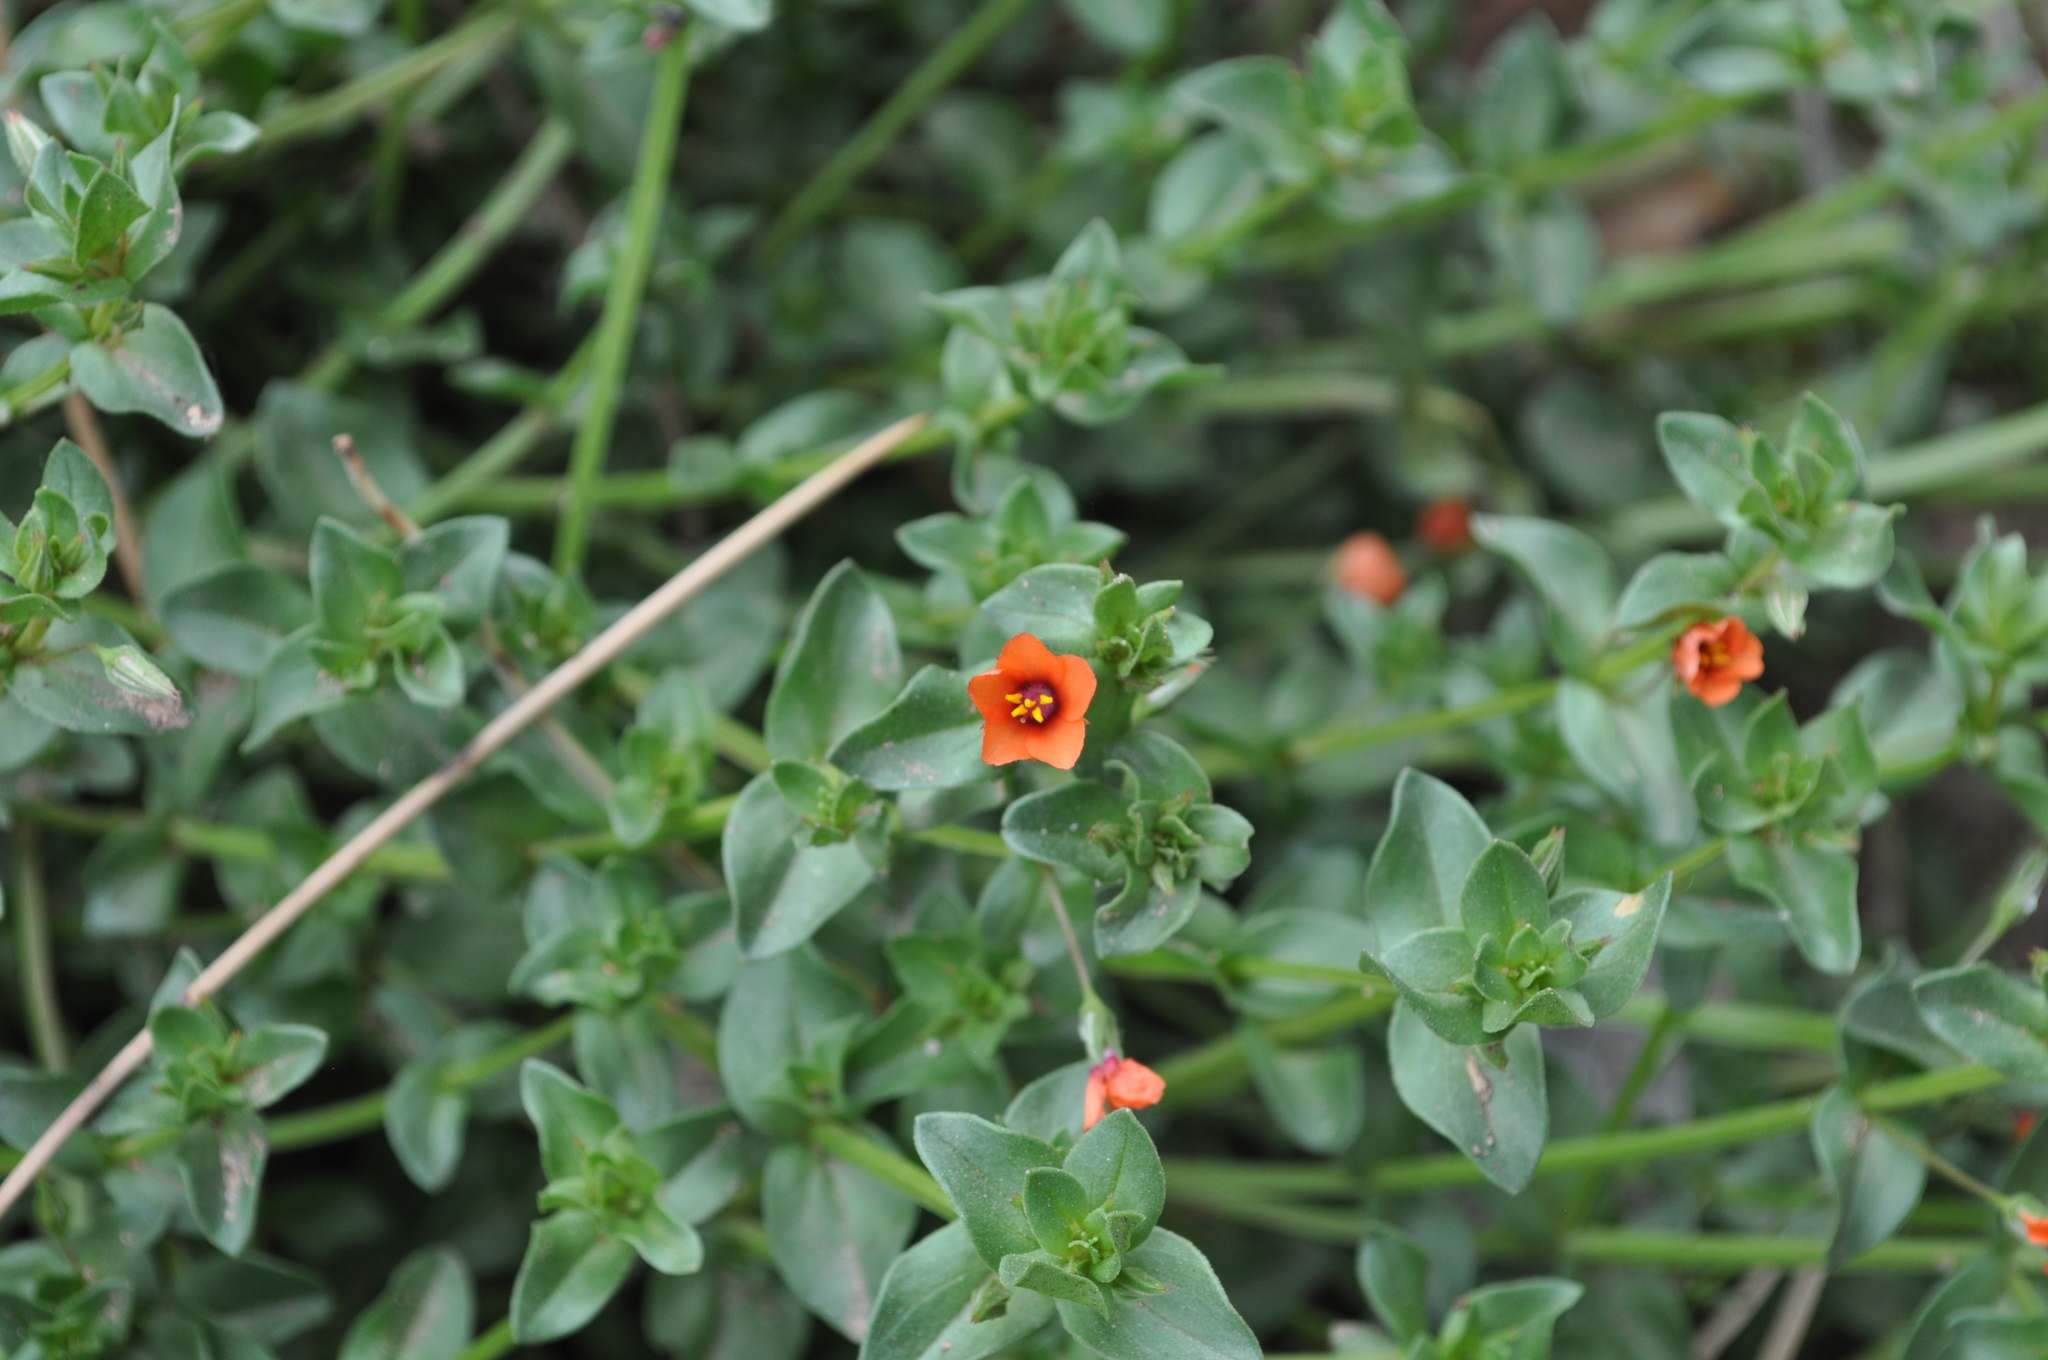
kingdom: Plantae
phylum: Tracheophyta
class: Magnoliopsida
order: Ericales
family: Primulaceae
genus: Lysimachia
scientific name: Lysimachia arvensis
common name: Scarlet pimpernel
